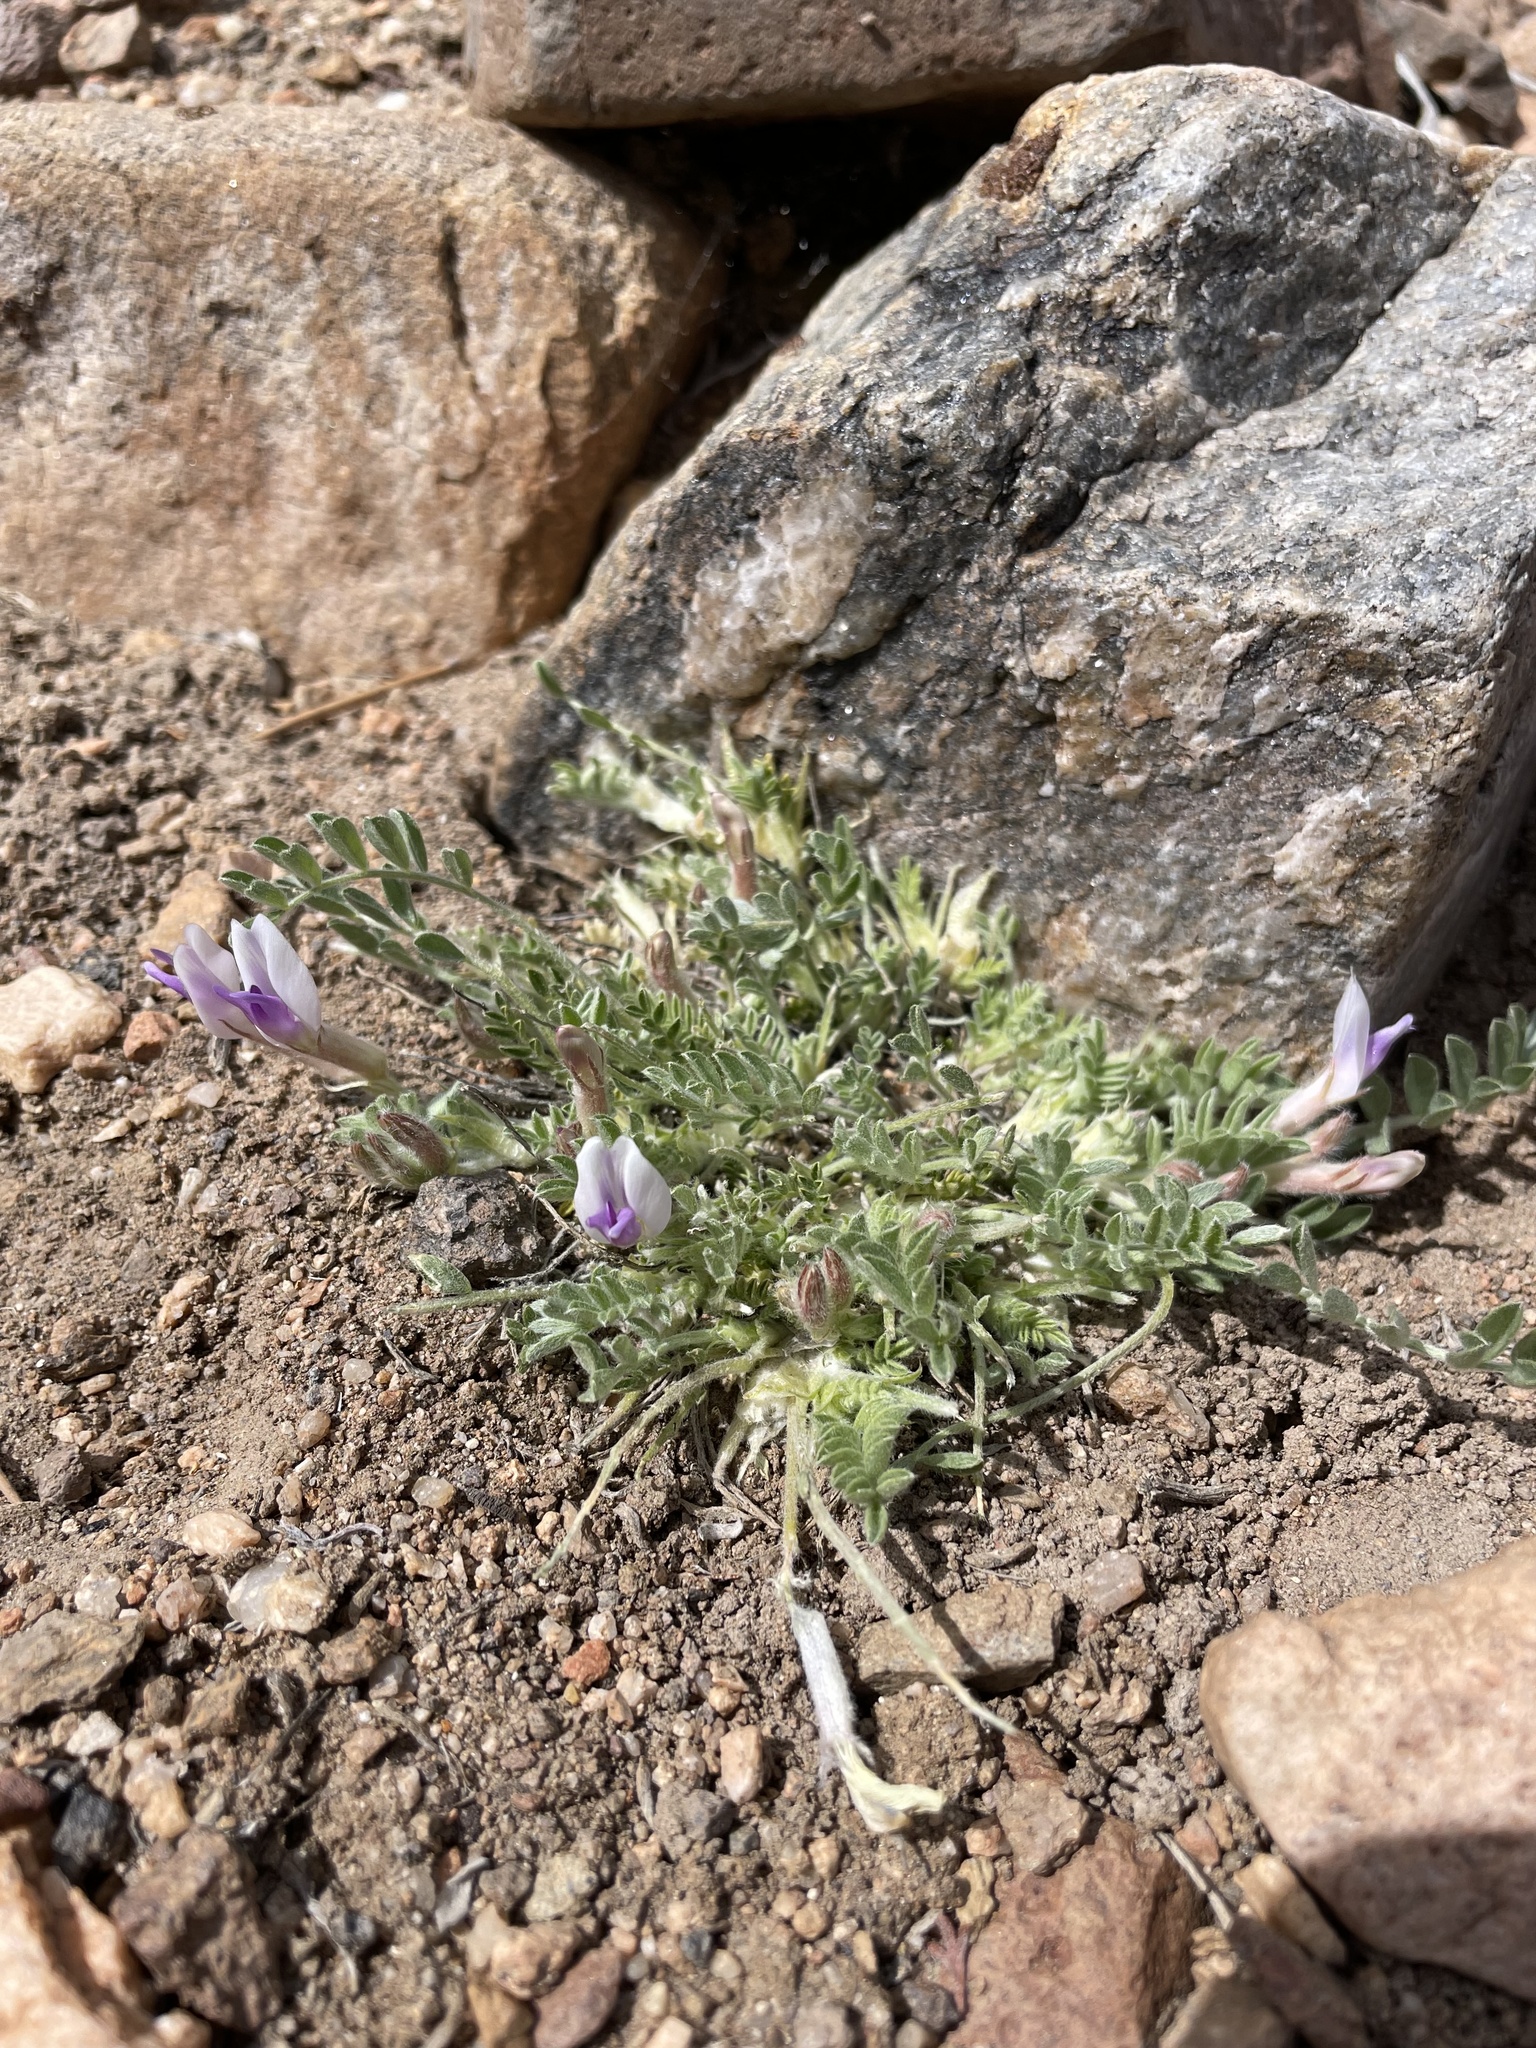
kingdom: Plantae
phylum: Tracheophyta
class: Magnoliopsida
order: Fabales
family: Fabaceae
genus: Astragalus
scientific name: Astragalus purshii
